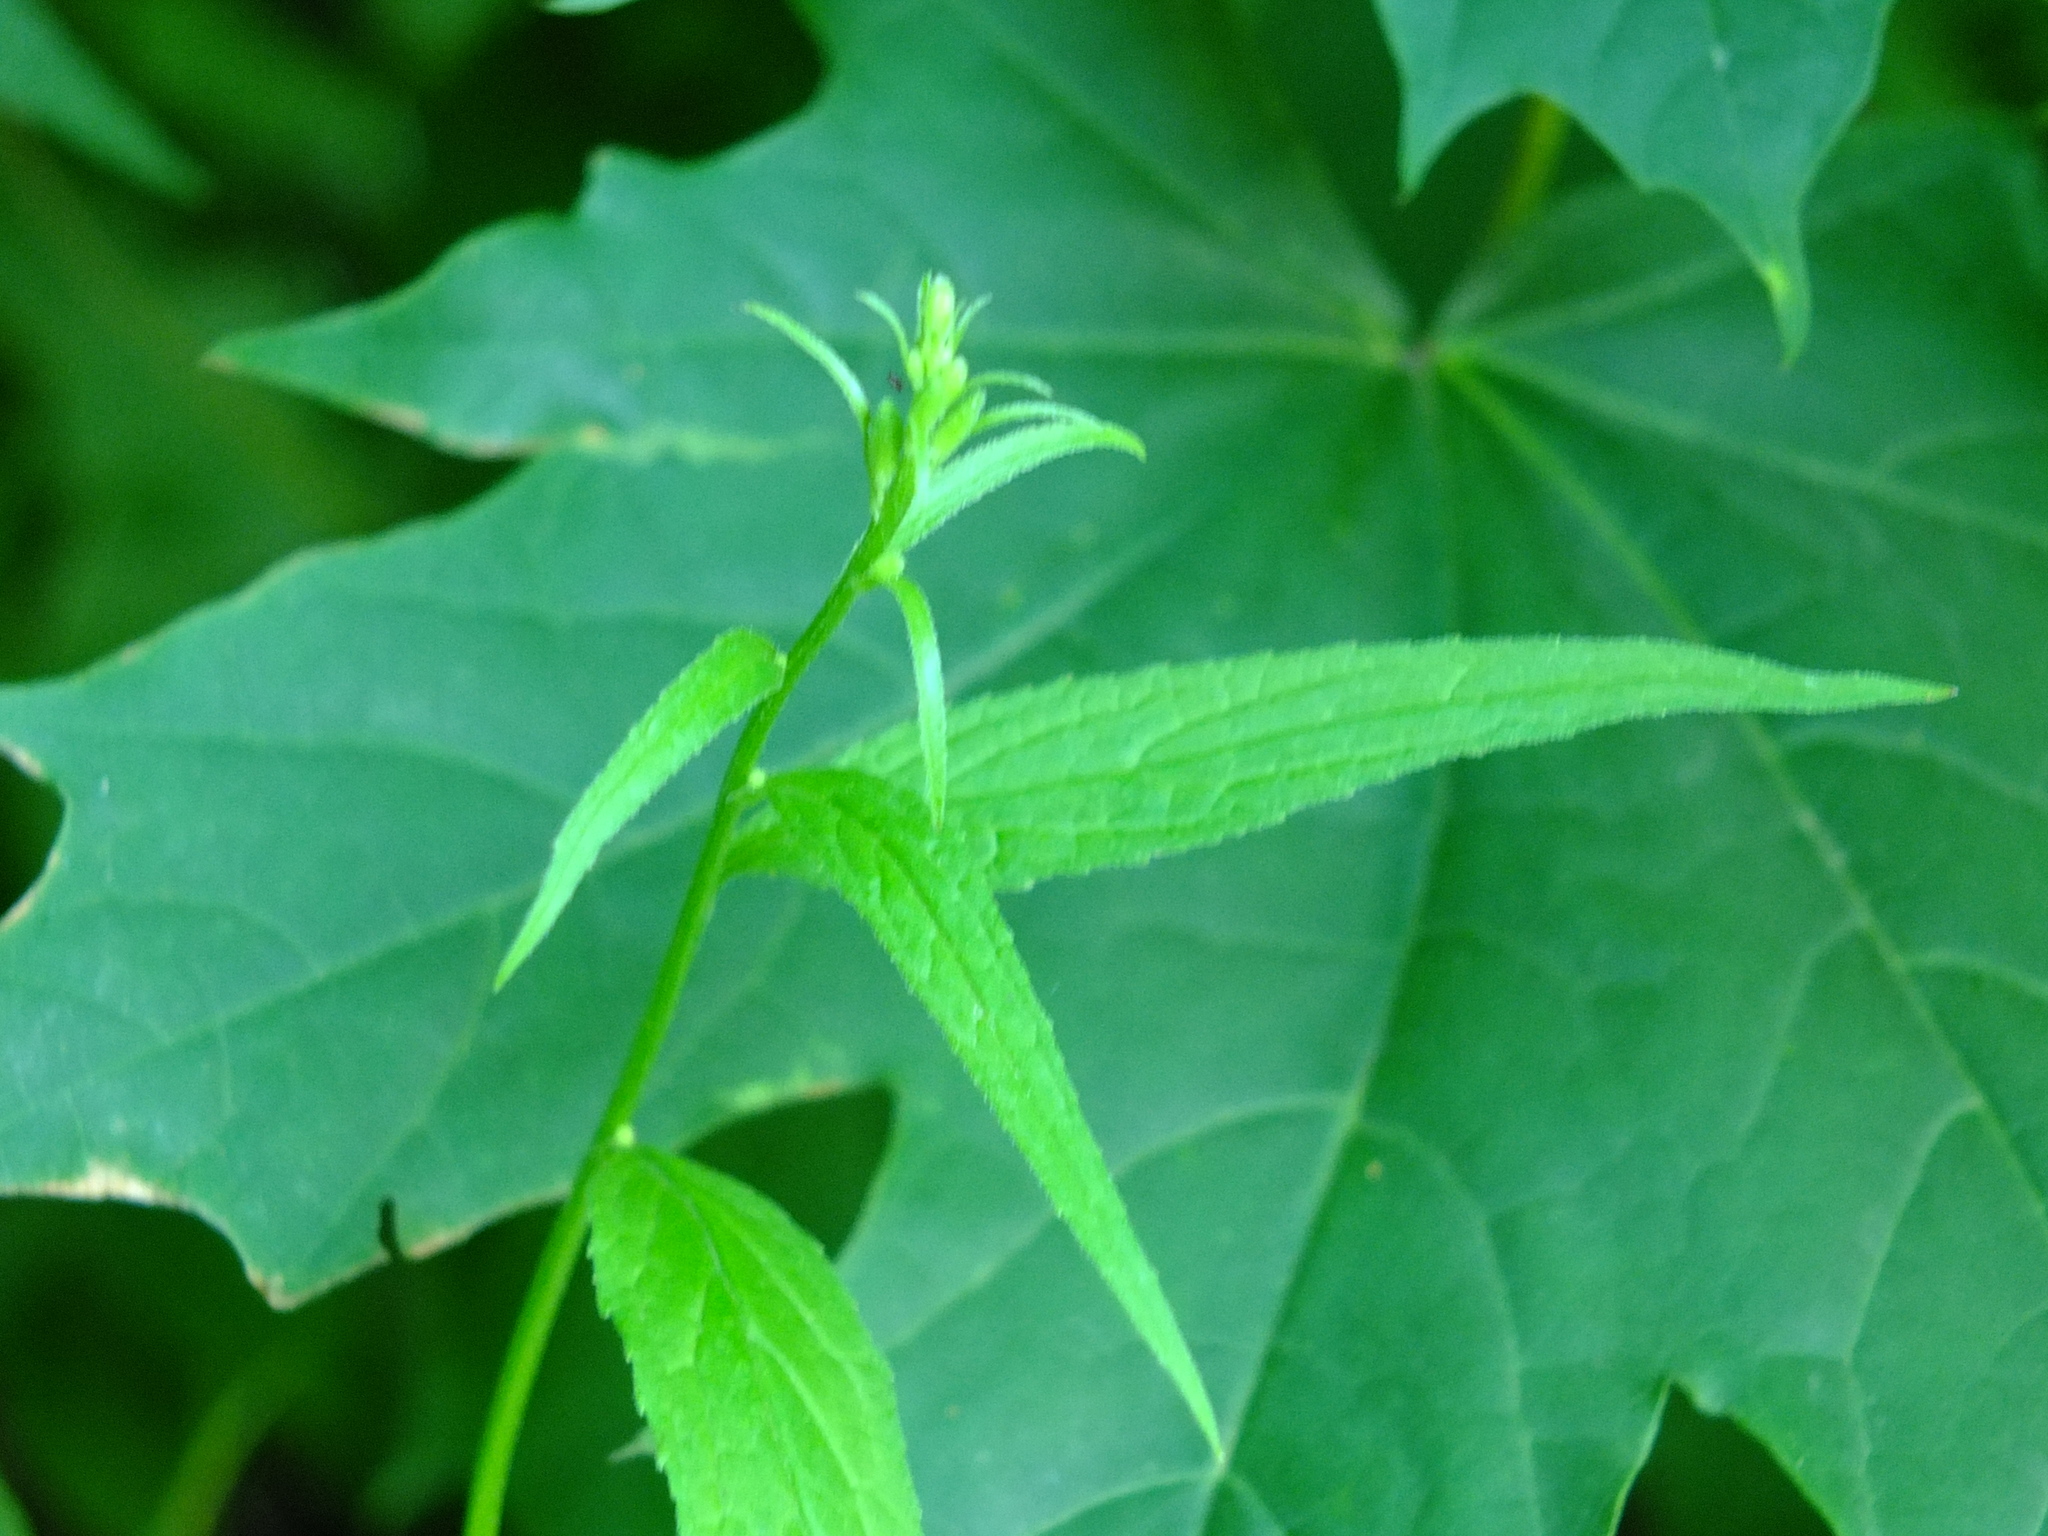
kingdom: Plantae
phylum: Tracheophyta
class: Magnoliopsida
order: Asterales
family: Campanulaceae
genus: Campanula
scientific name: Campanula rapunculoides
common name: Creeping bellflower
